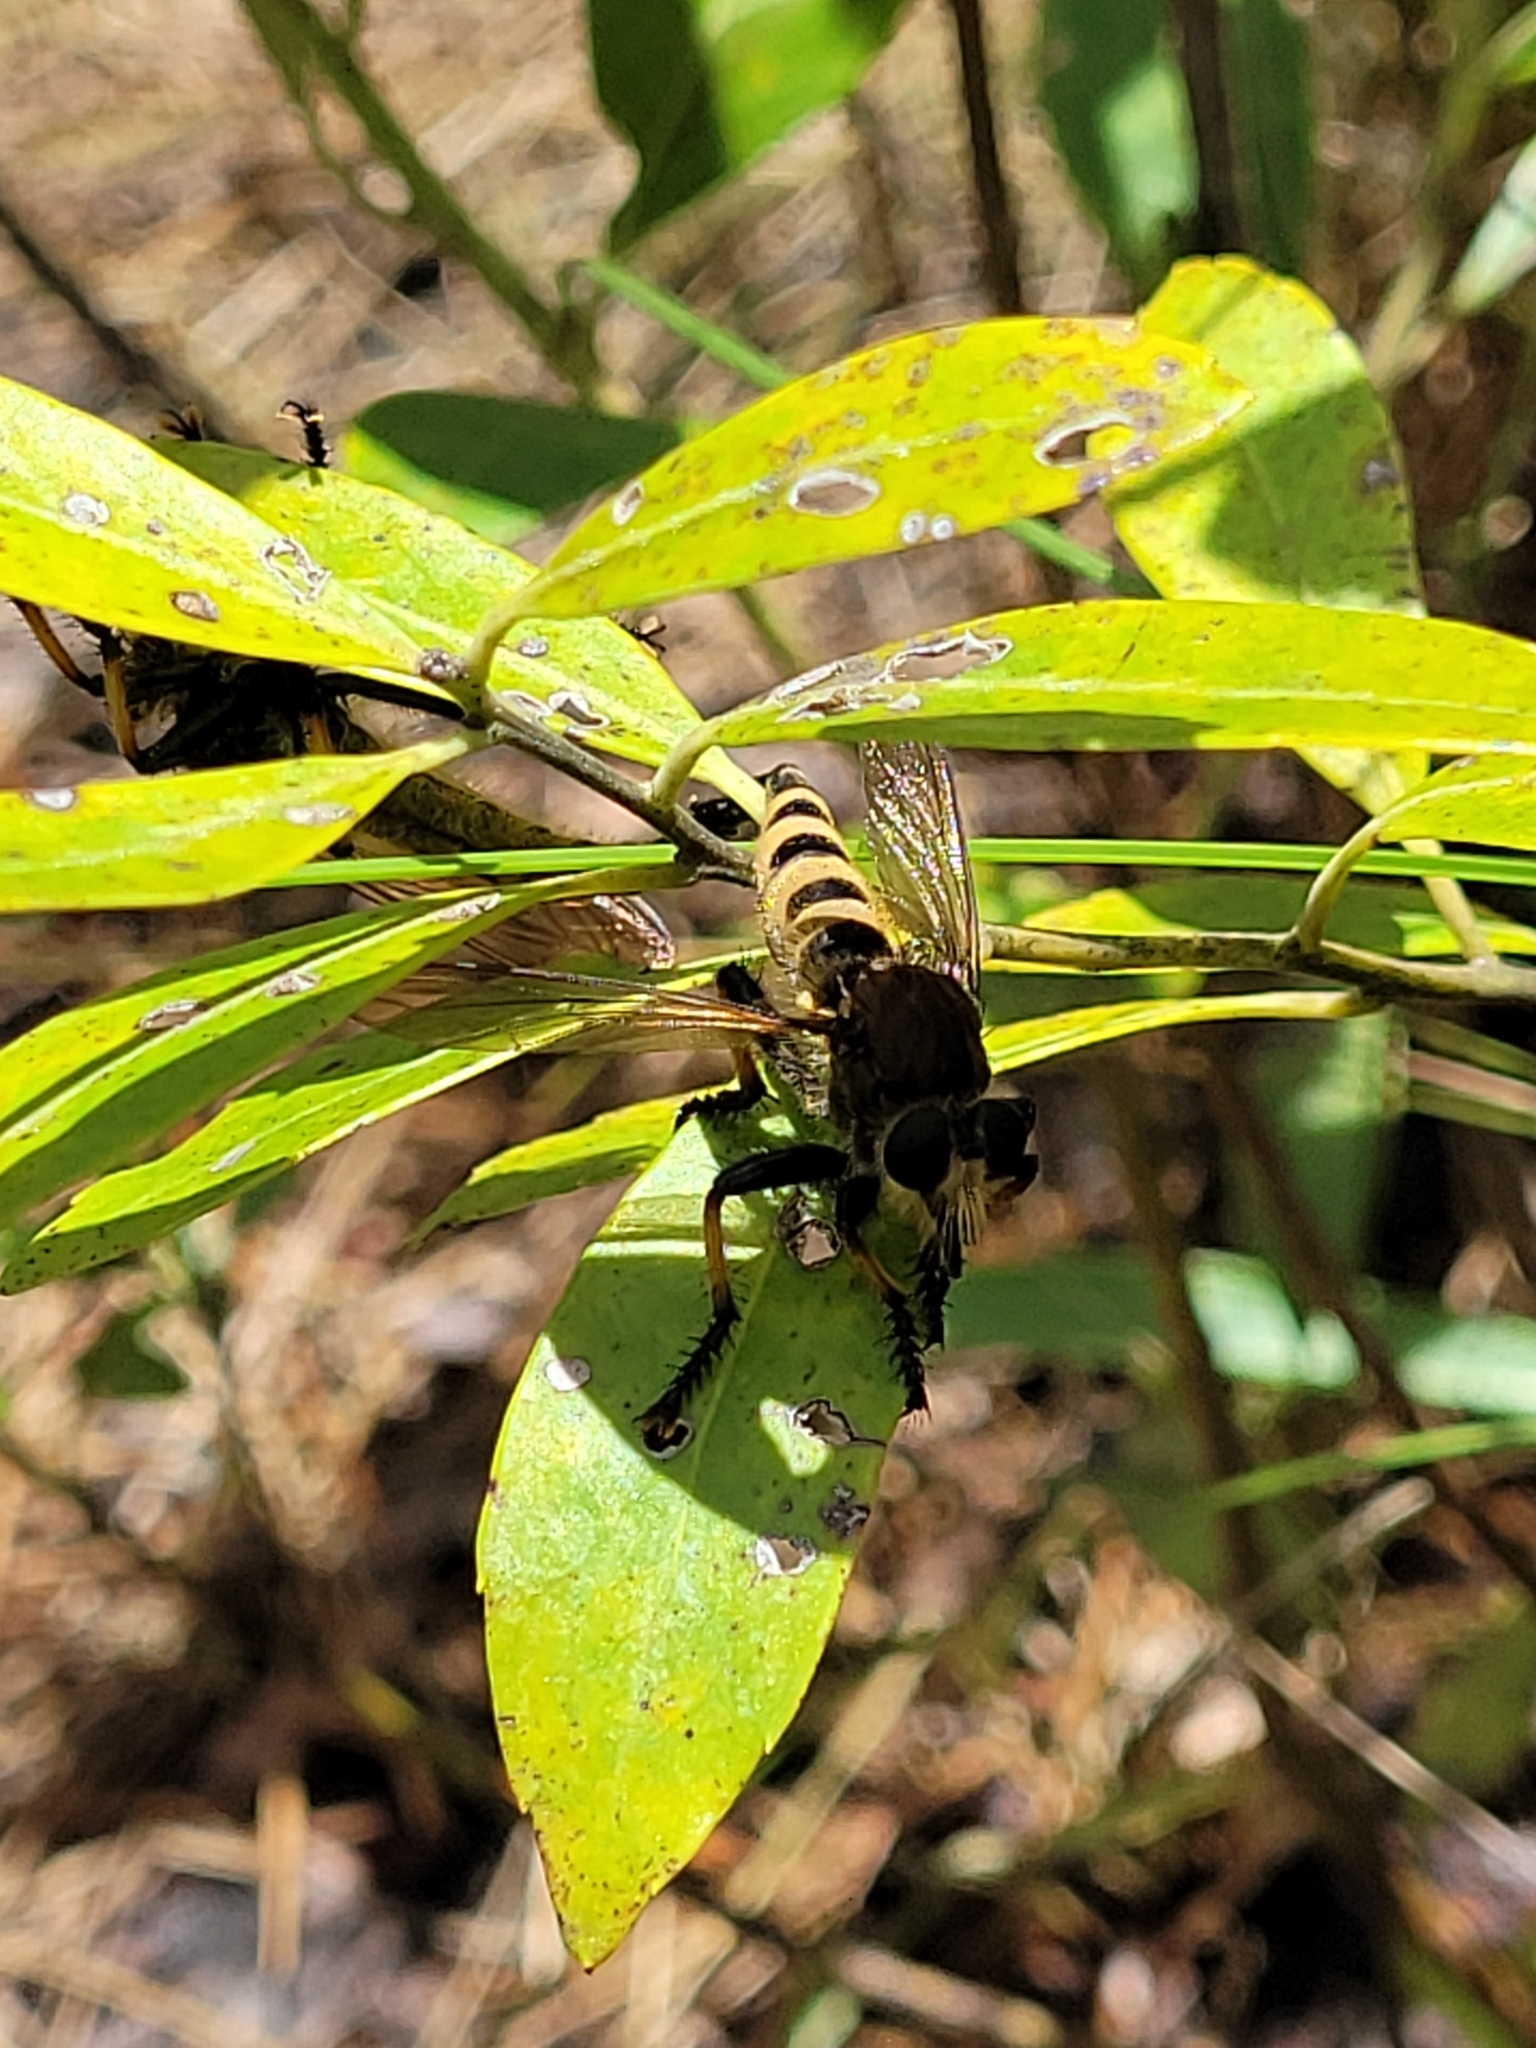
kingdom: Animalia
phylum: Arthropoda
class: Insecta
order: Diptera
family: Asilidae
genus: Promachus
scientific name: Promachus rufipes
